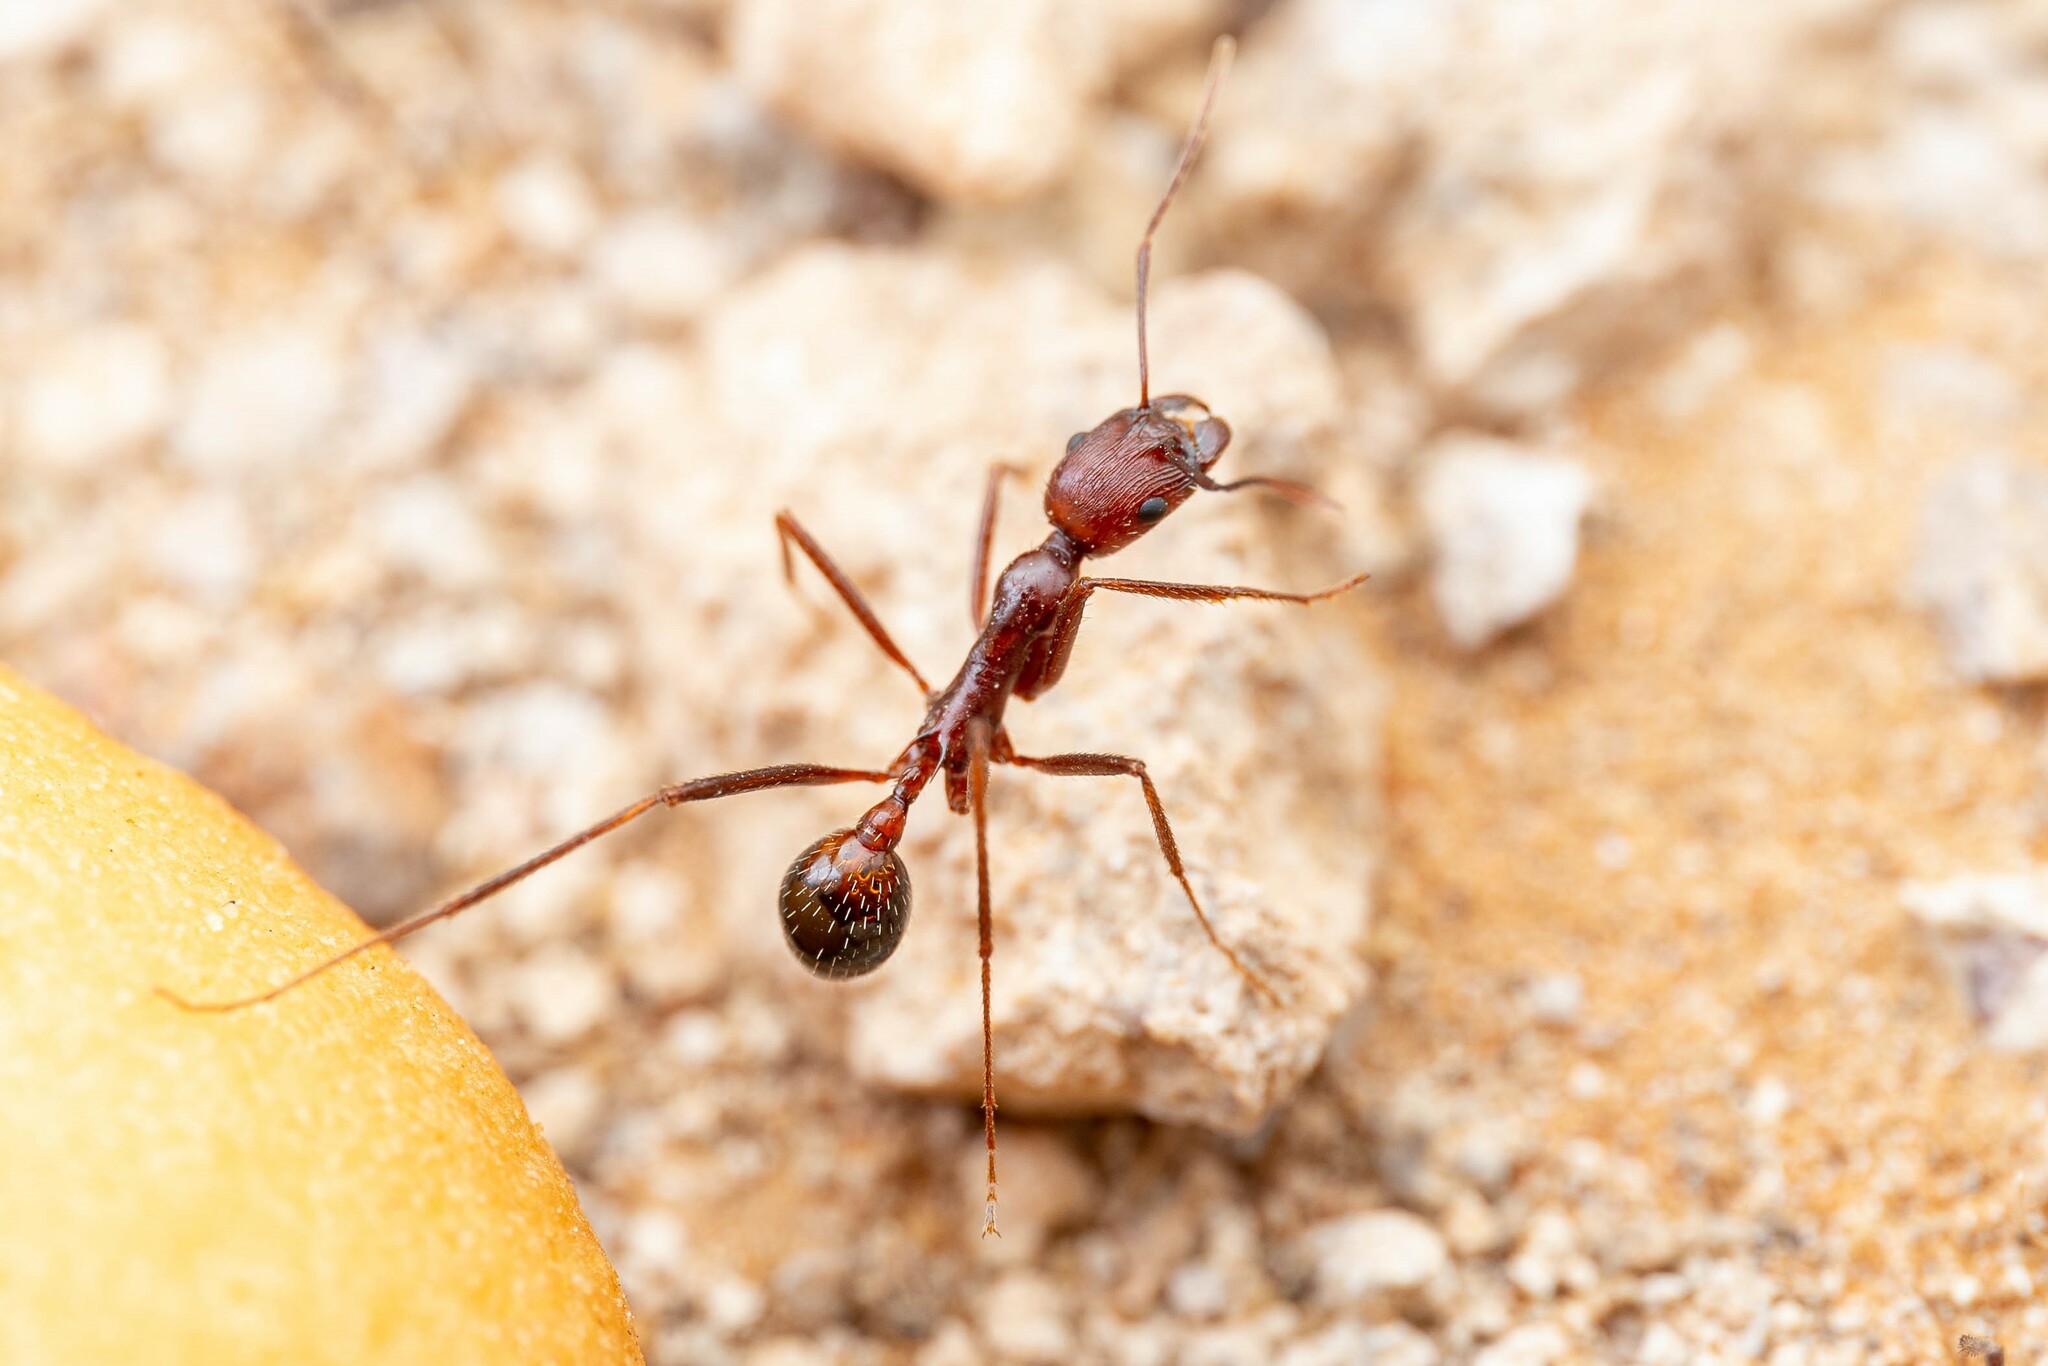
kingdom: Animalia
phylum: Arthropoda
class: Insecta
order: Hymenoptera
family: Formicidae
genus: Novomessor
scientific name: Novomessor cockerelli
